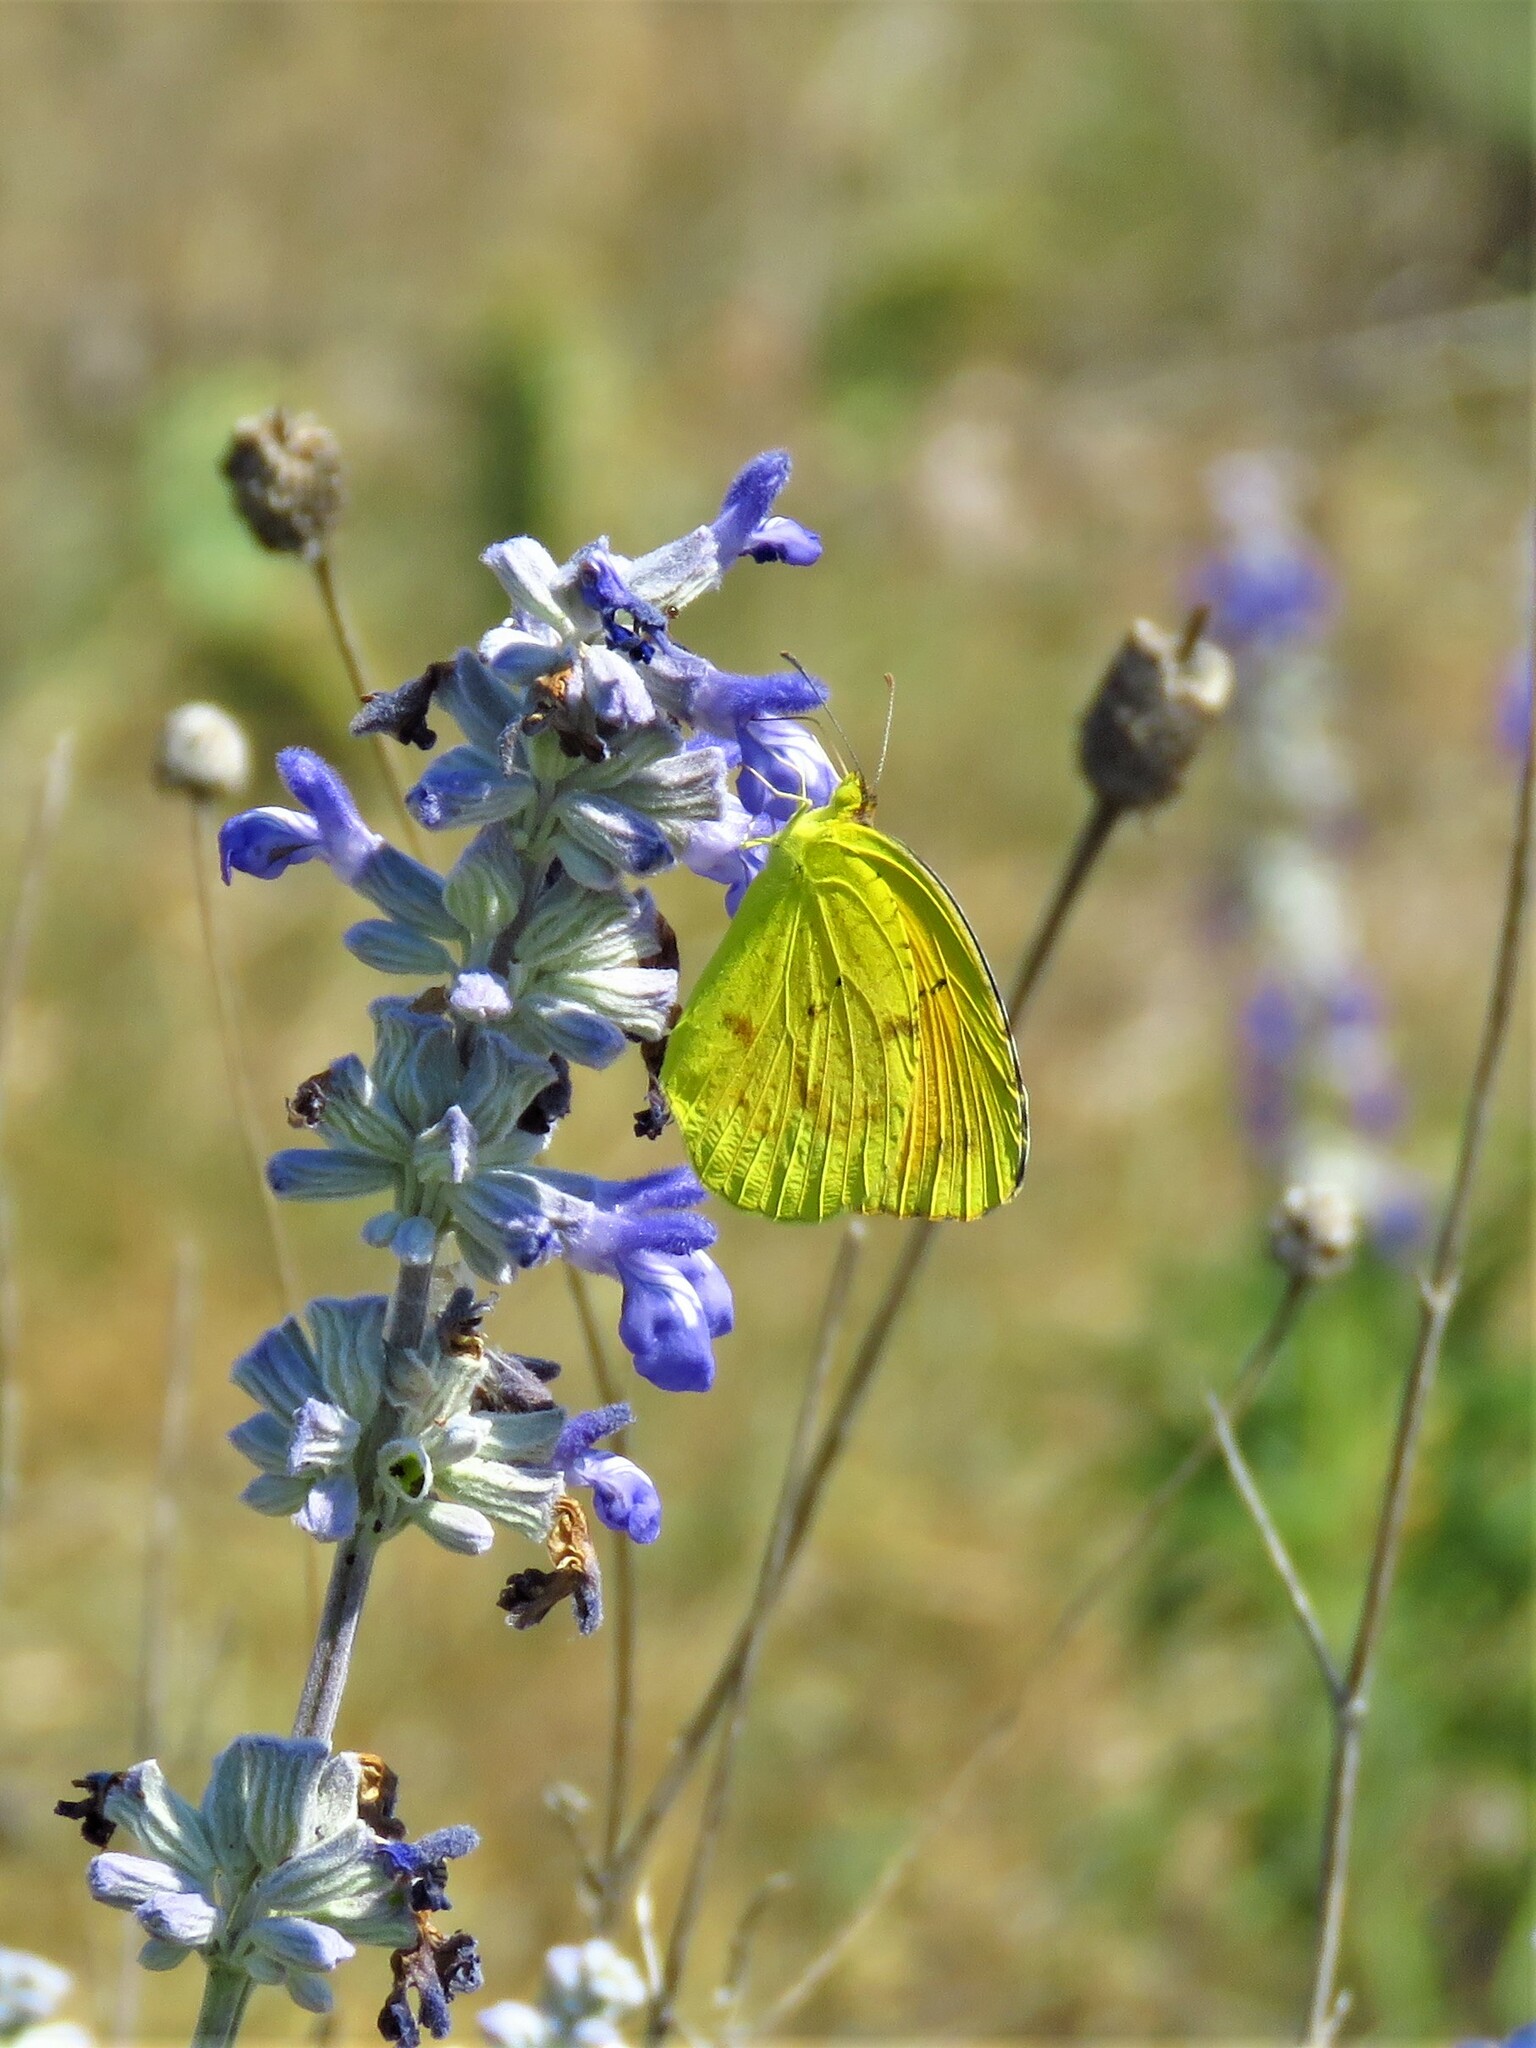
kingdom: Animalia
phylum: Arthropoda
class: Insecta
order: Lepidoptera
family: Pieridae
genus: Abaeis
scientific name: Abaeis nicippe
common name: Sleepy orange
